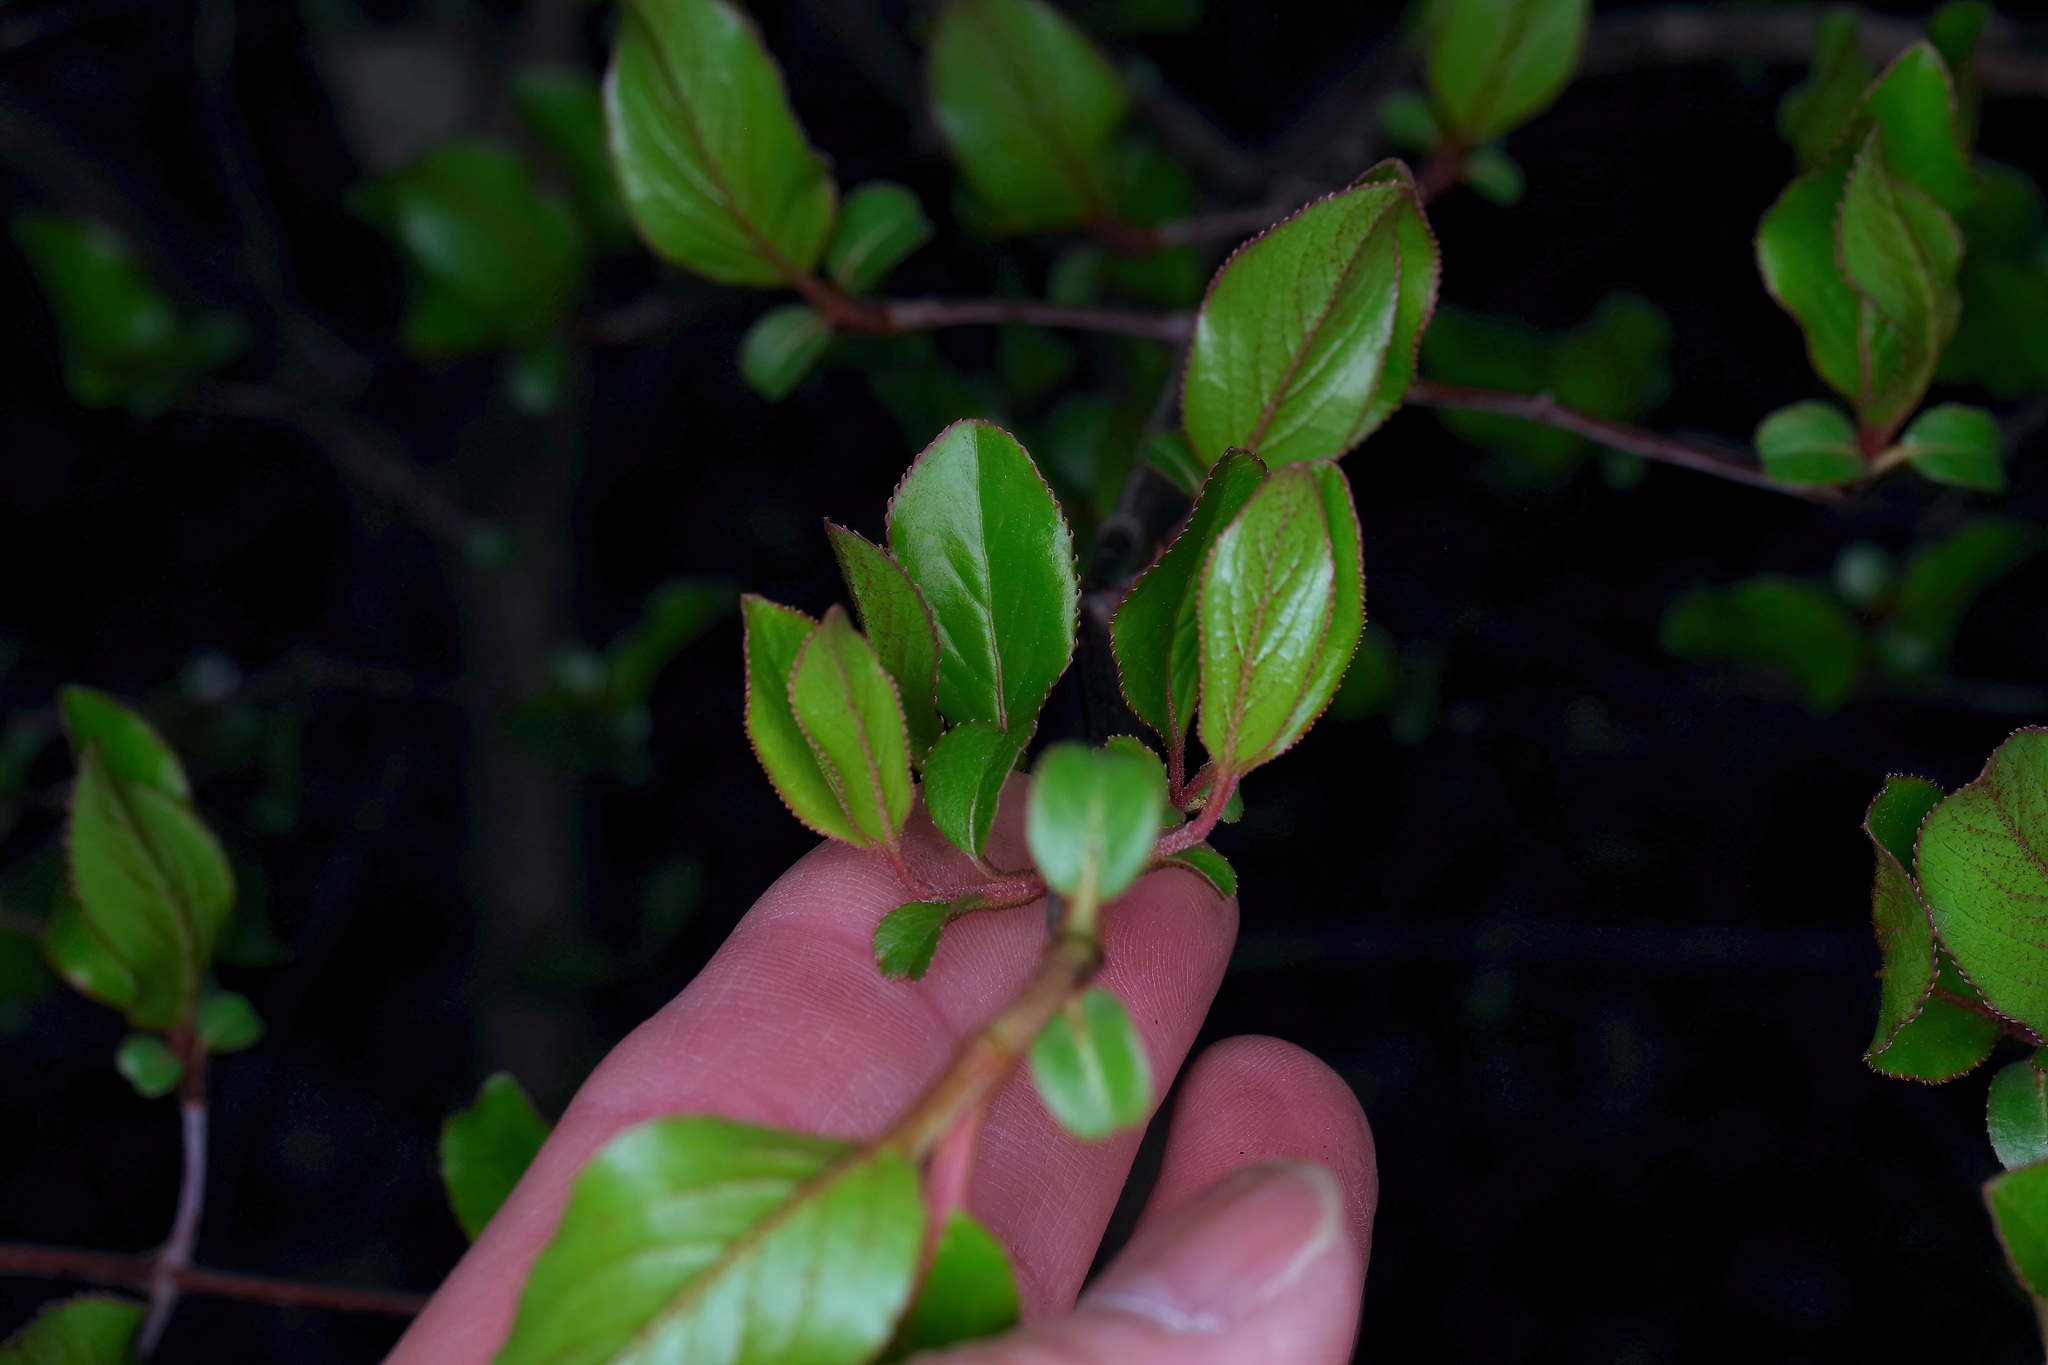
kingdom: Plantae
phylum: Tracheophyta
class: Magnoliopsida
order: Dipsacales
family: Viburnaceae
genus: Viburnum
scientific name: Viburnum rufidulum
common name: Blue haw
